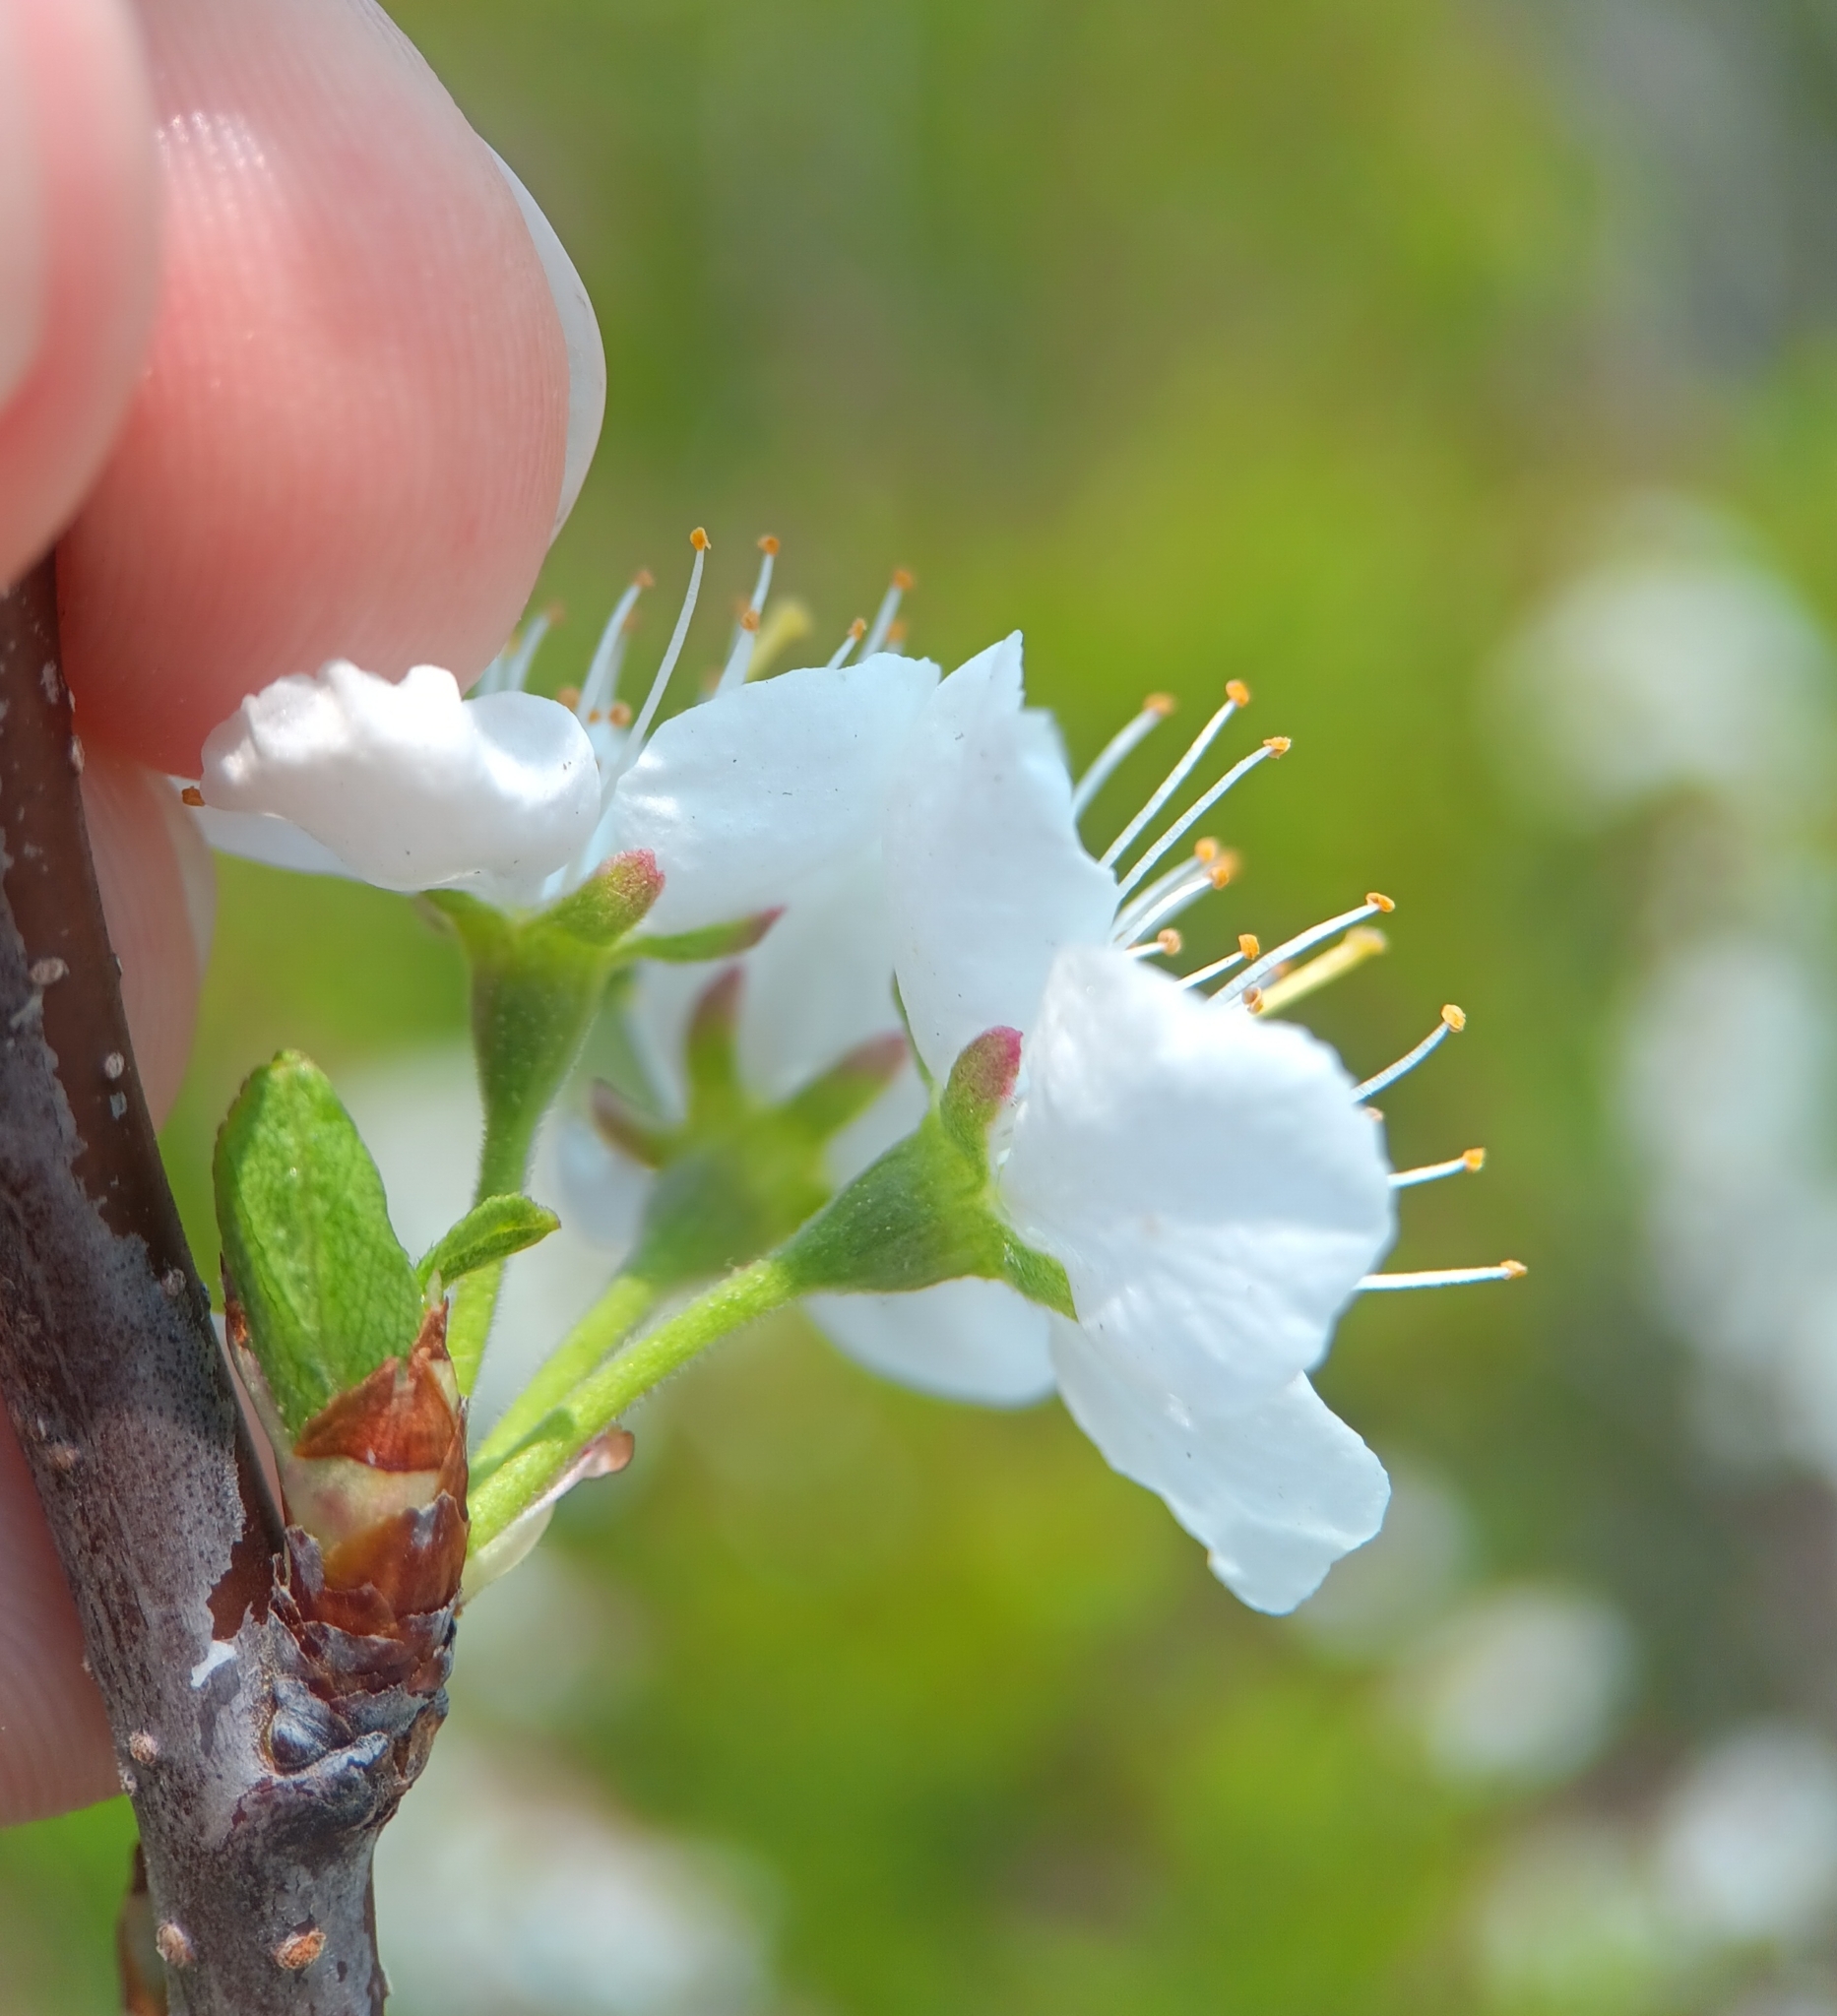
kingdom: Plantae
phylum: Tracheophyta
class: Magnoliopsida
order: Rosales
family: Rosaceae
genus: Prunus
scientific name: Prunus maritima
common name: Beach plum
